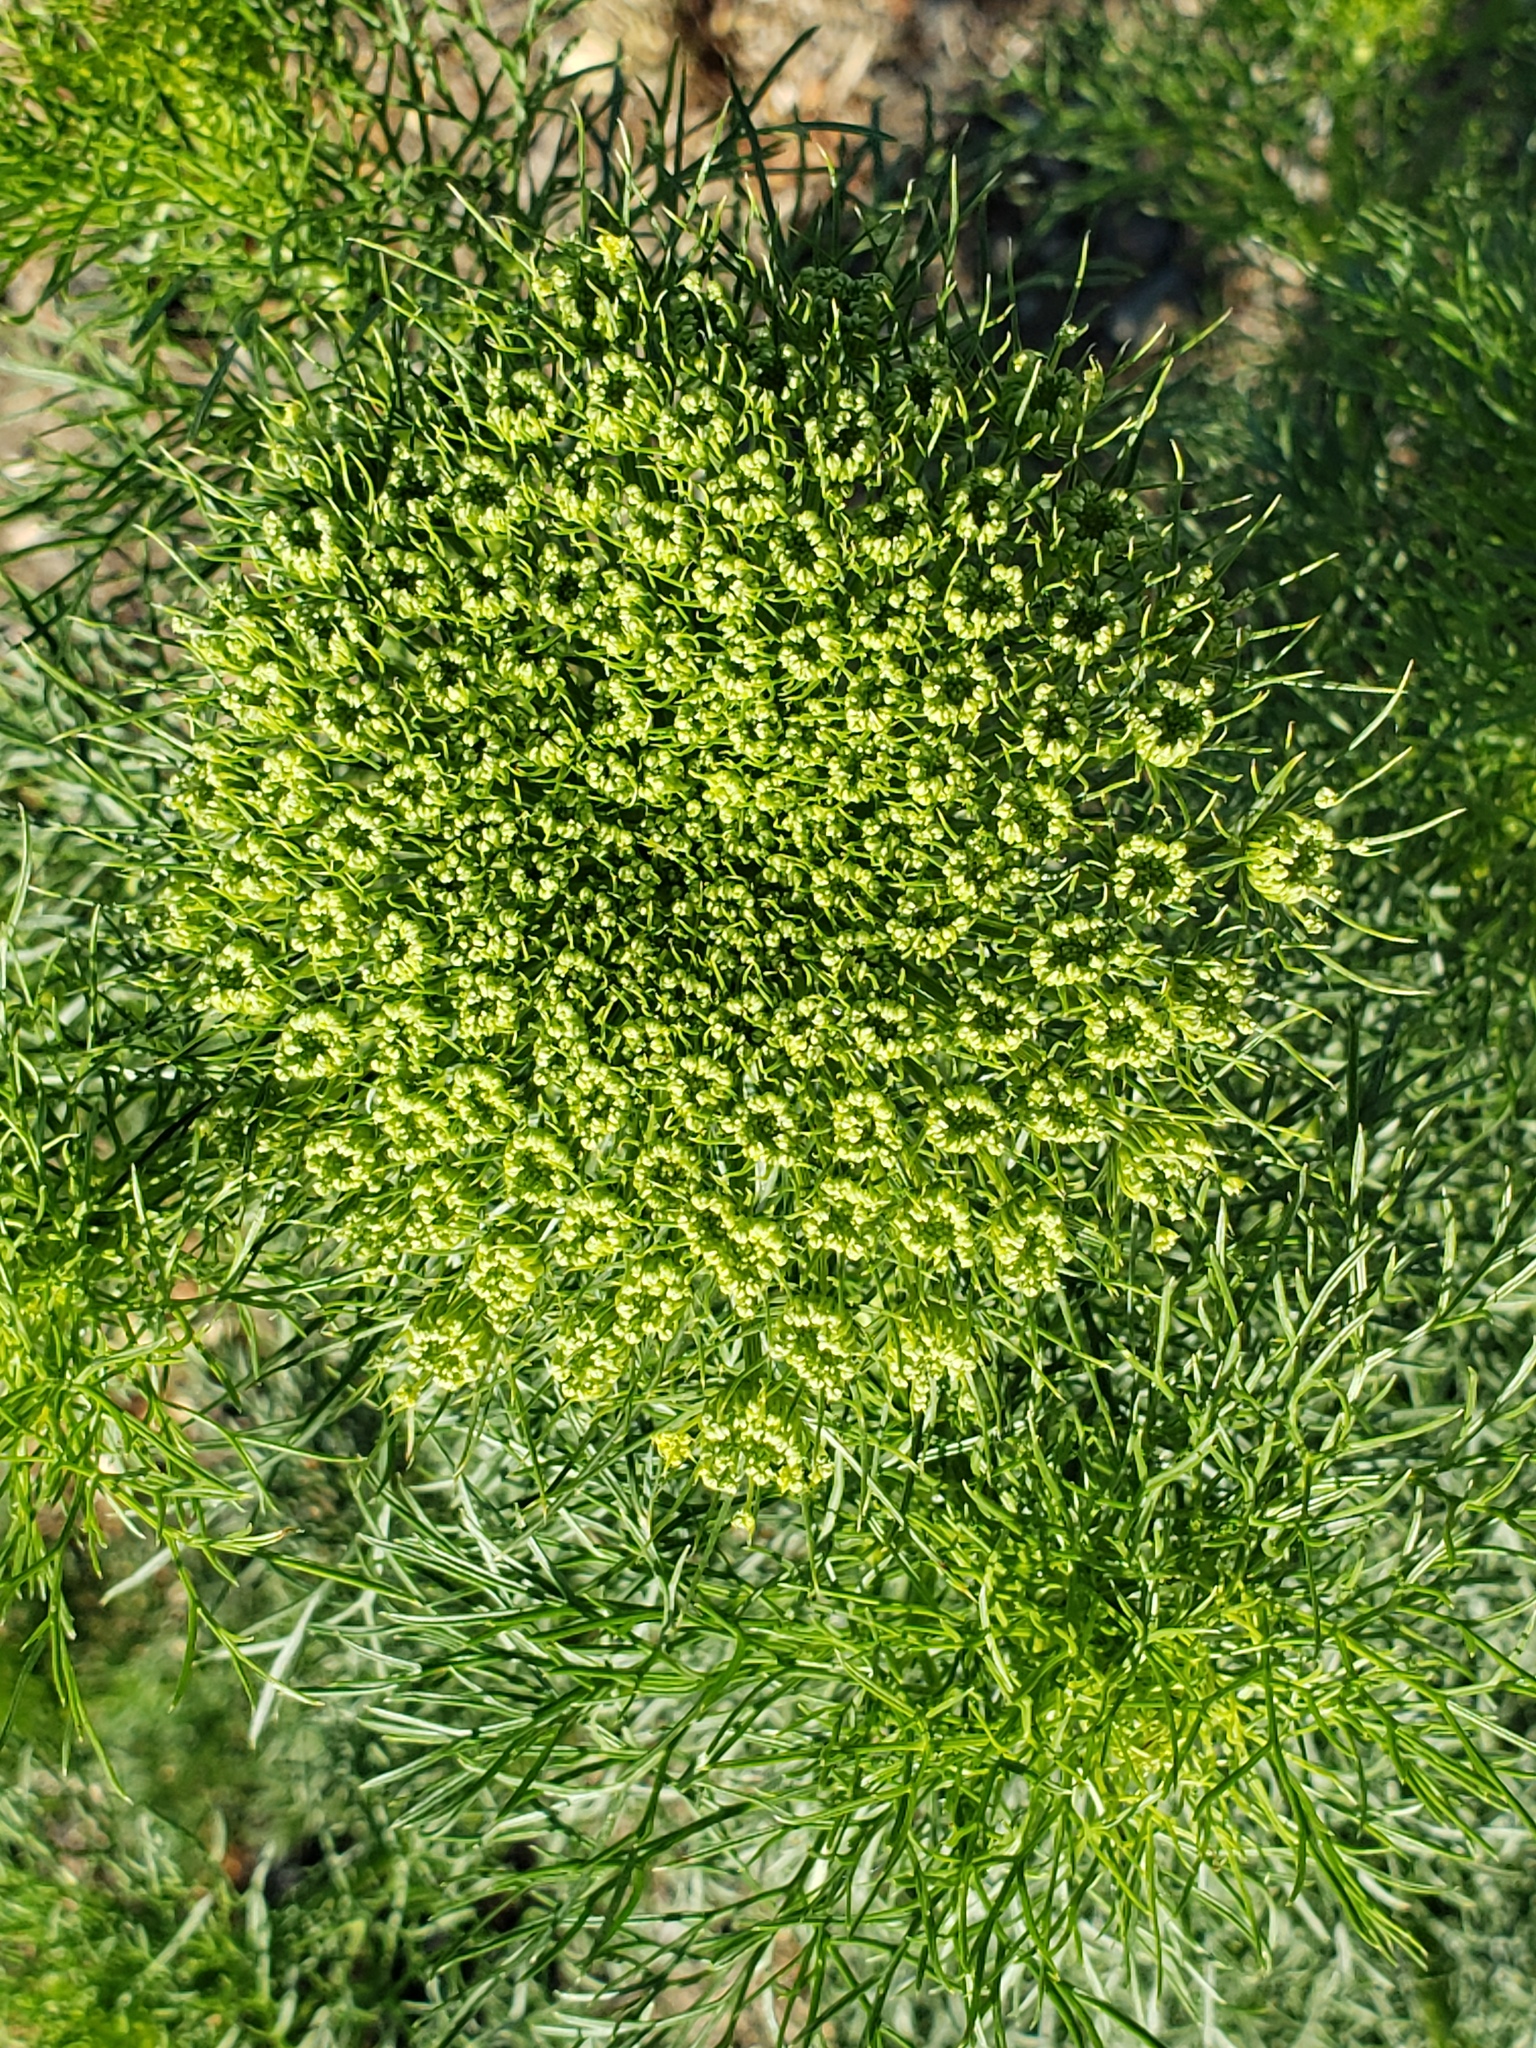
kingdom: Plantae
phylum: Tracheophyta
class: Magnoliopsida
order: Apiales
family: Apiaceae
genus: Visnaga
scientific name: Visnaga daucoides
